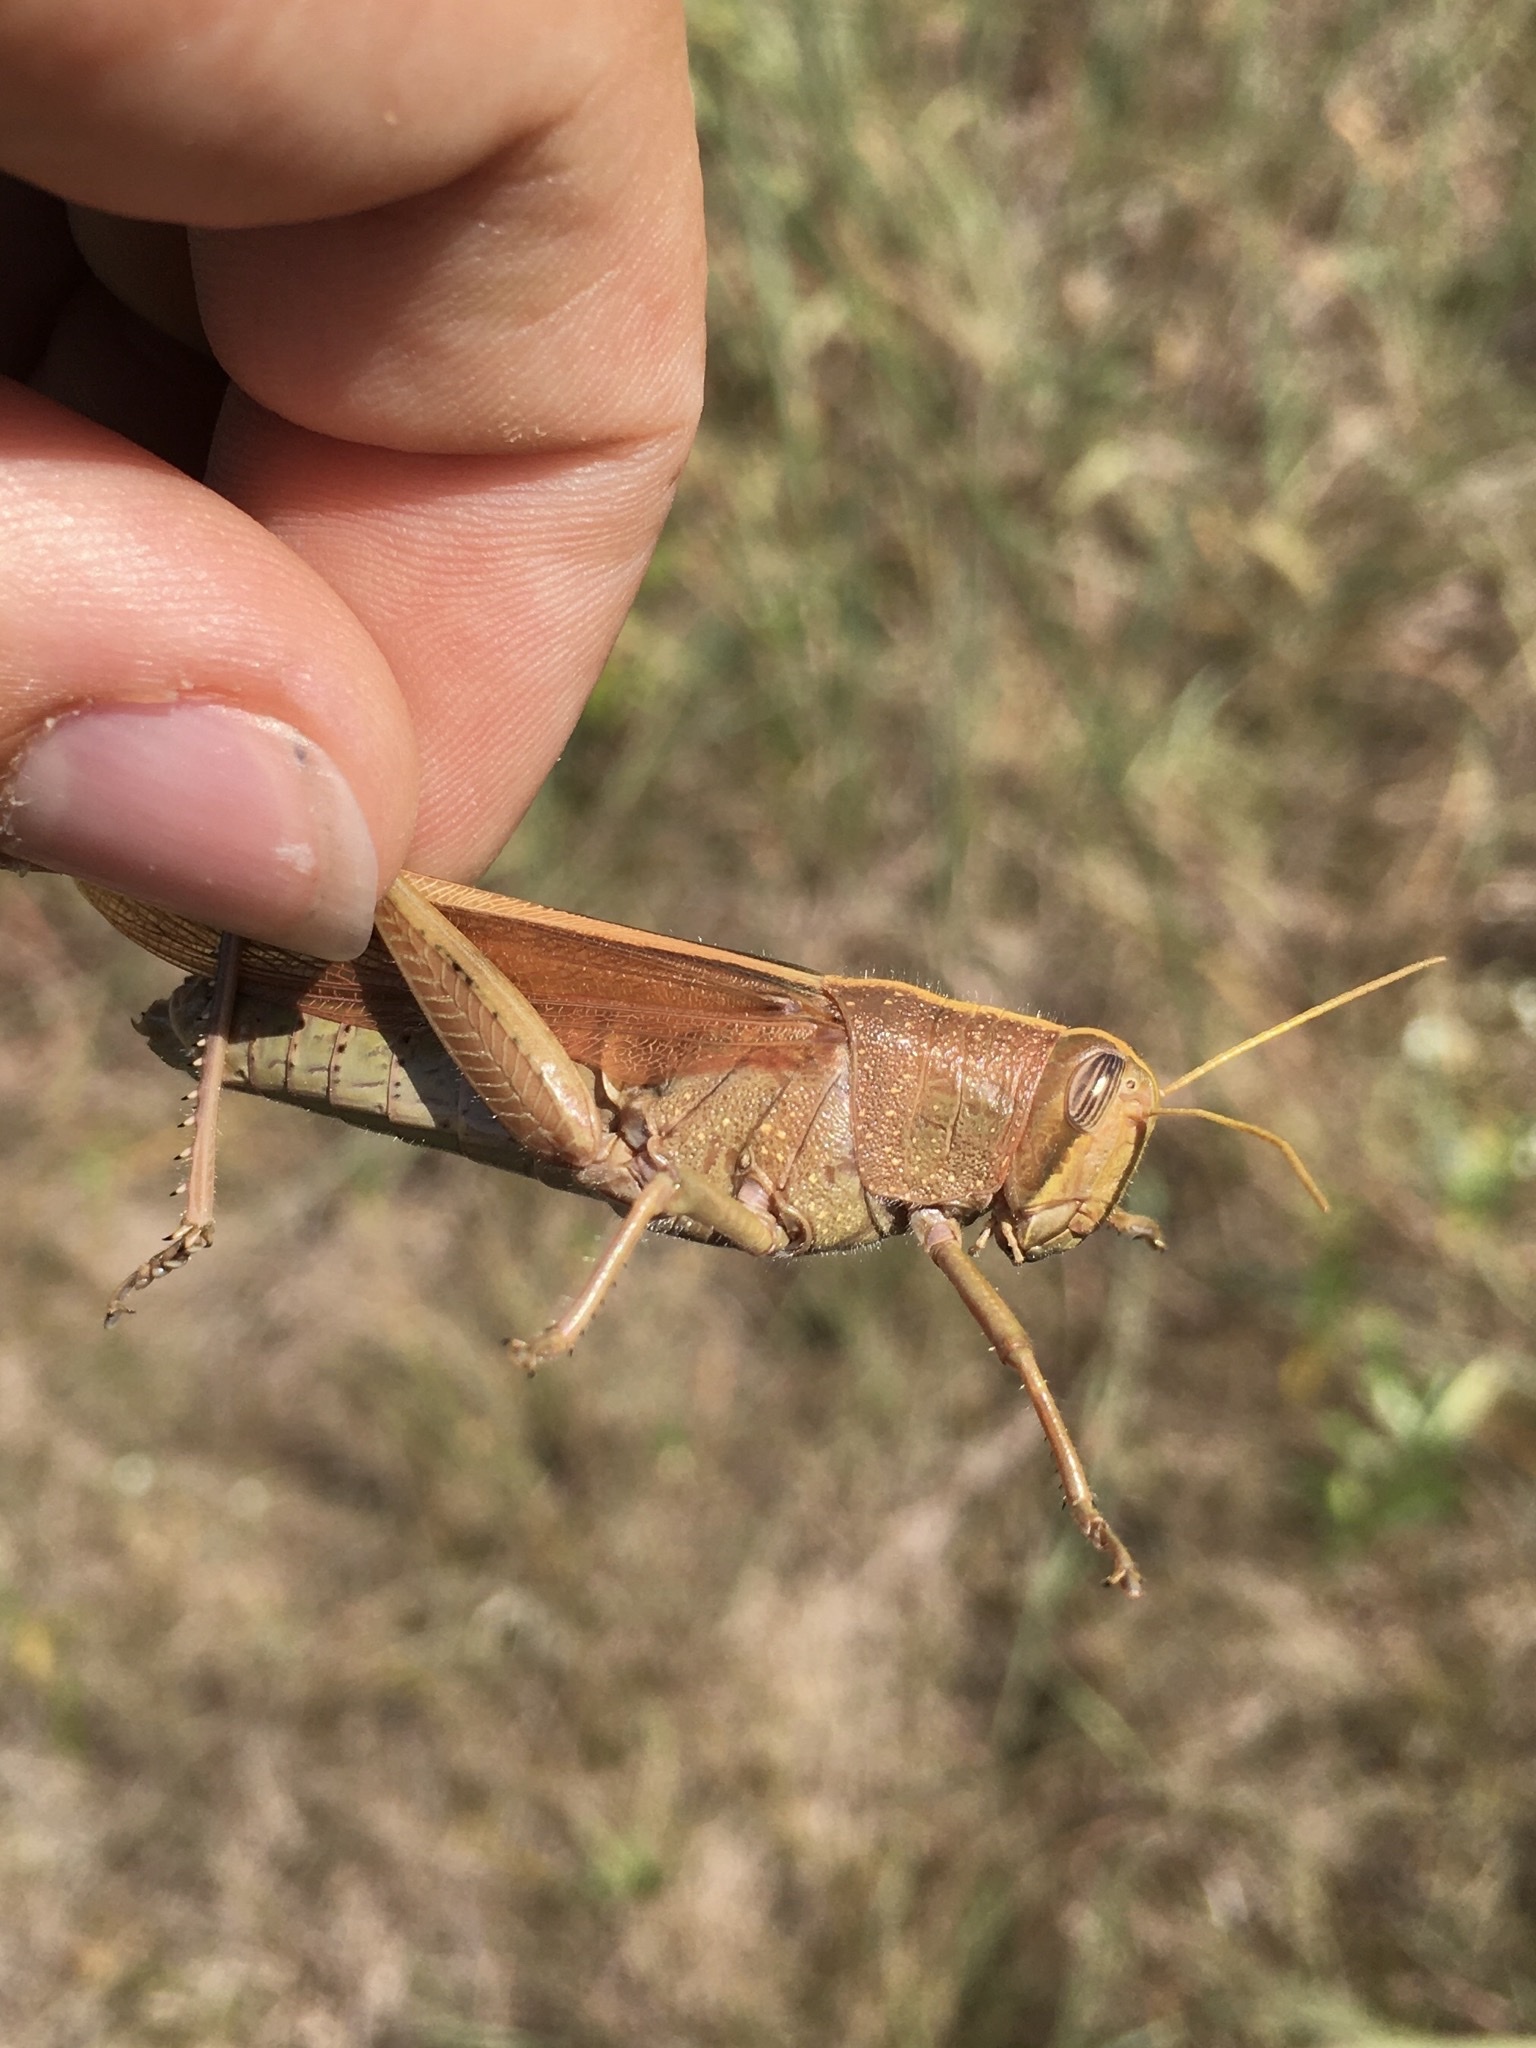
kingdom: Animalia
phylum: Arthropoda
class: Insecta
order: Orthoptera
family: Acrididae
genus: Schistocerca
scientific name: Schistocerca lineata
